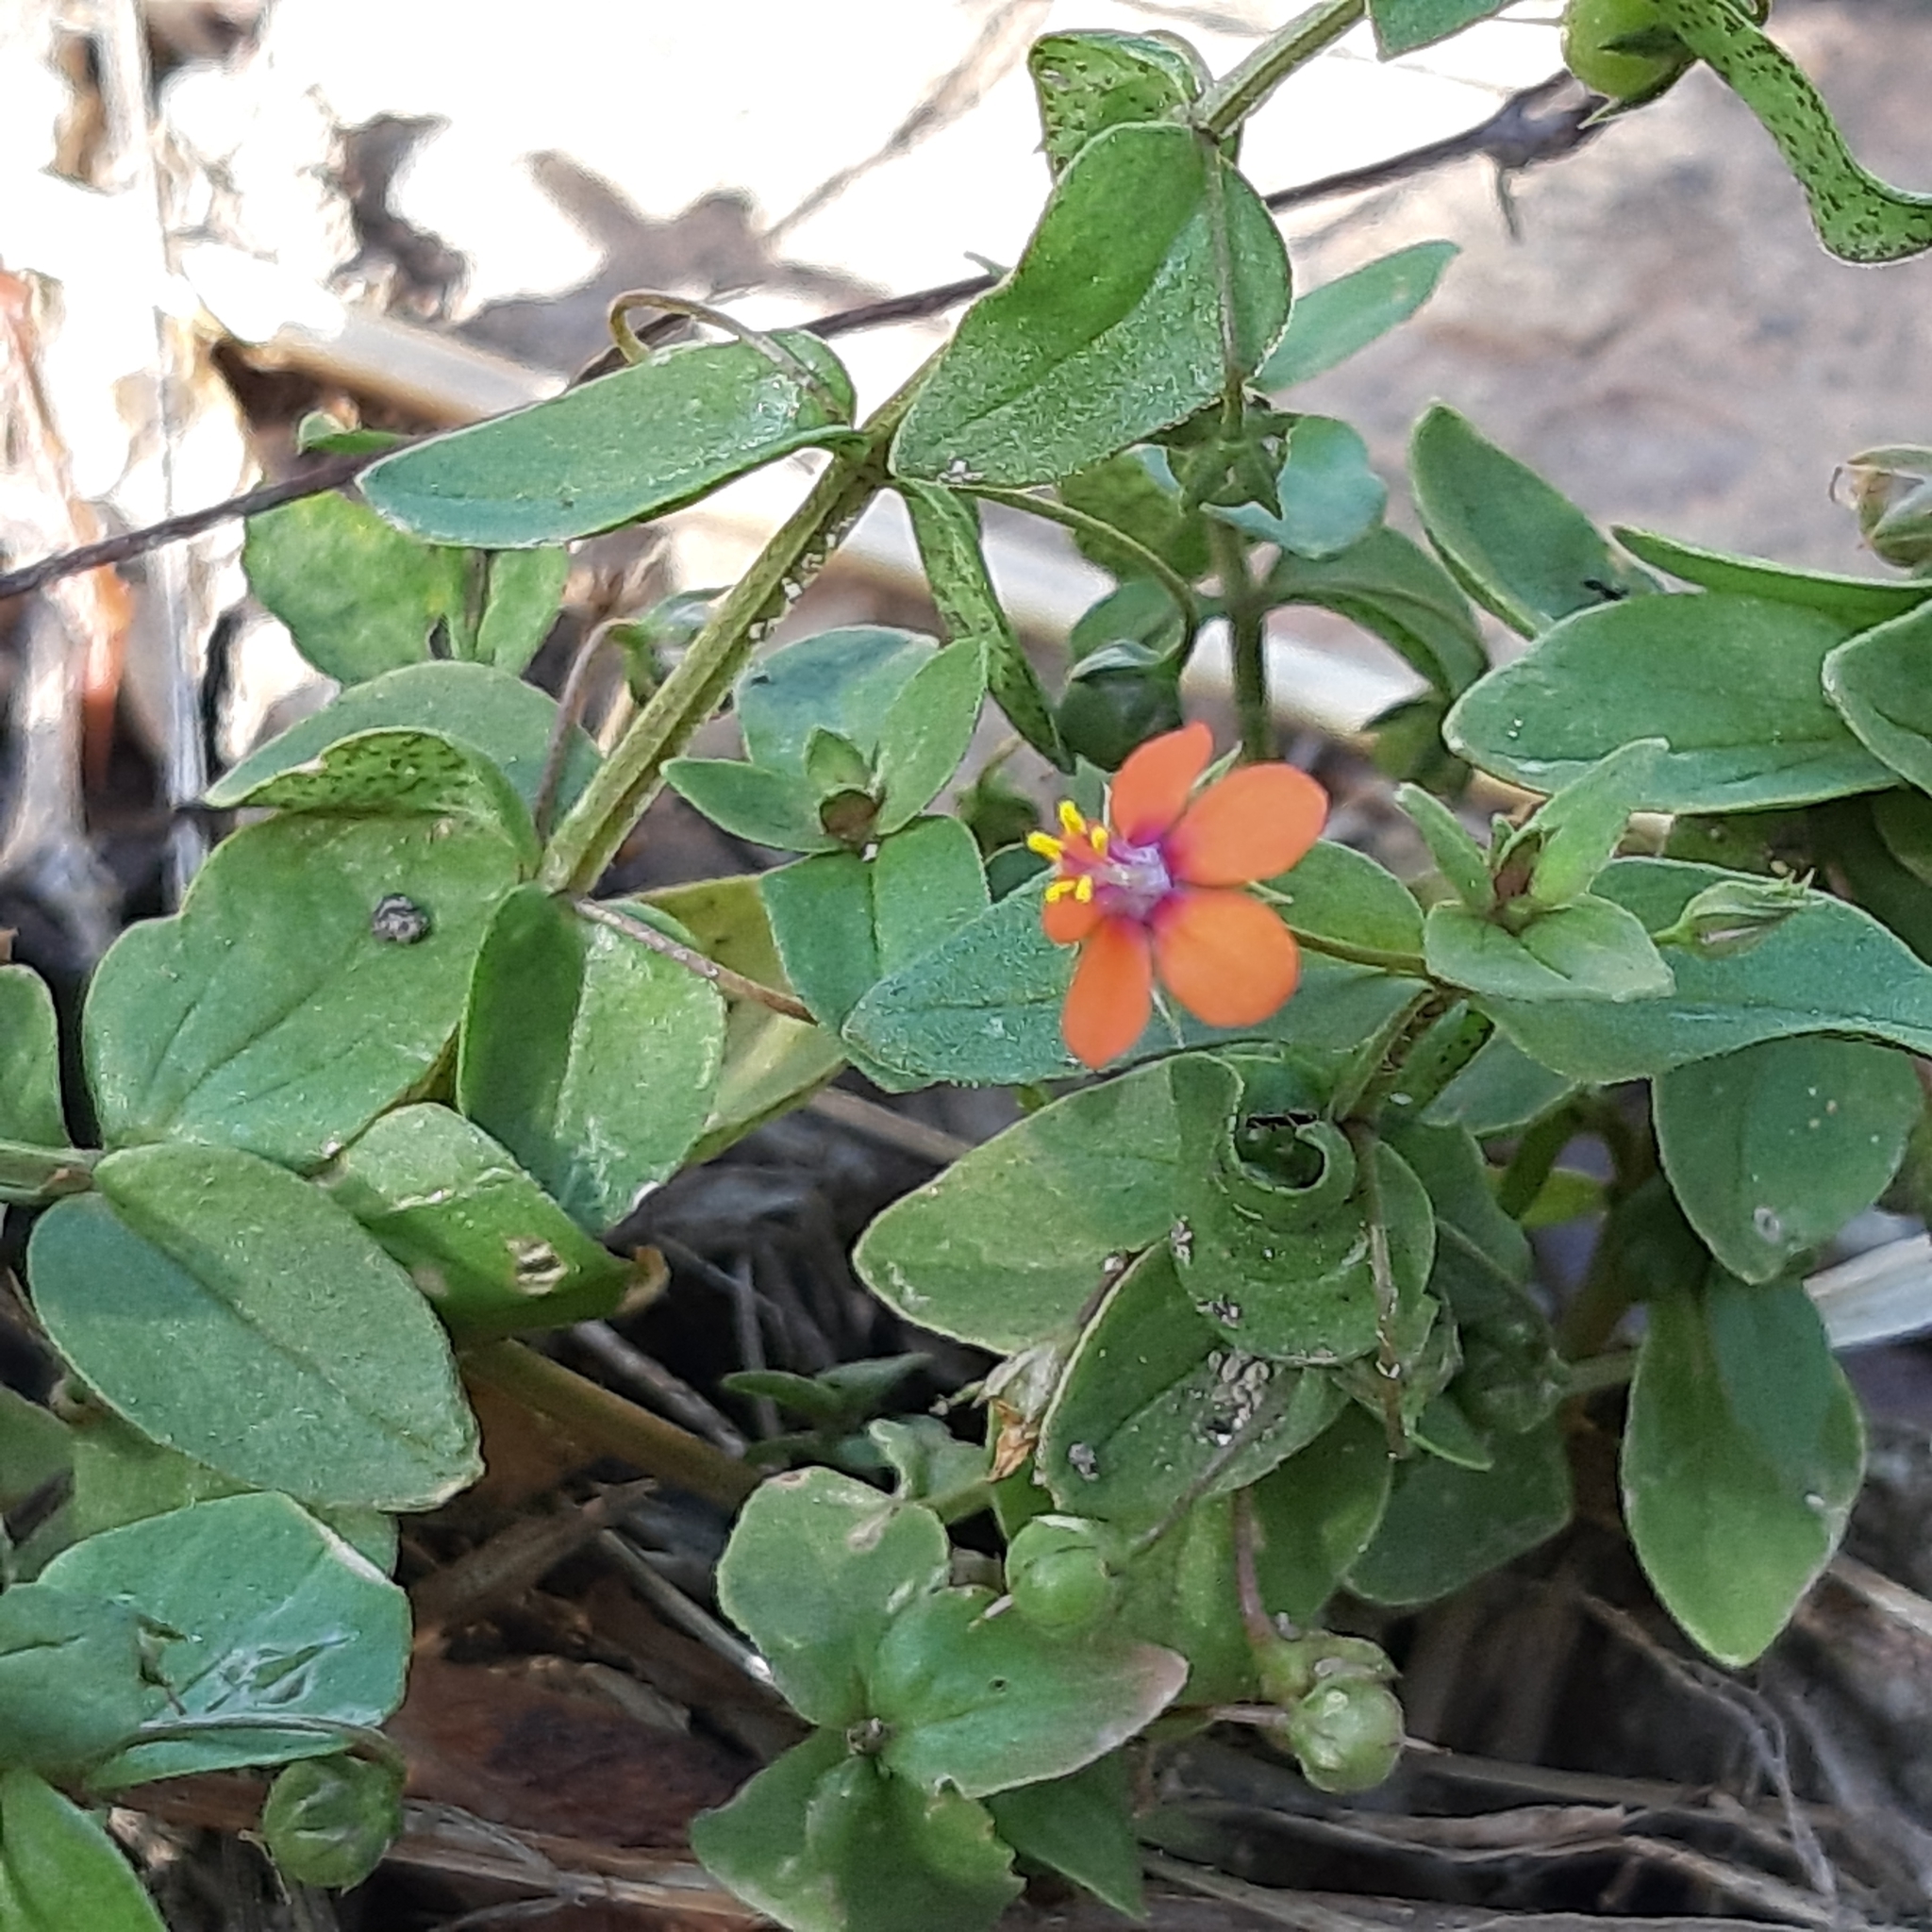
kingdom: Plantae
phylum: Tracheophyta
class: Magnoliopsida
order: Ericales
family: Primulaceae
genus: Lysimachia
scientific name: Lysimachia arvensis
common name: Scarlet pimpernel
